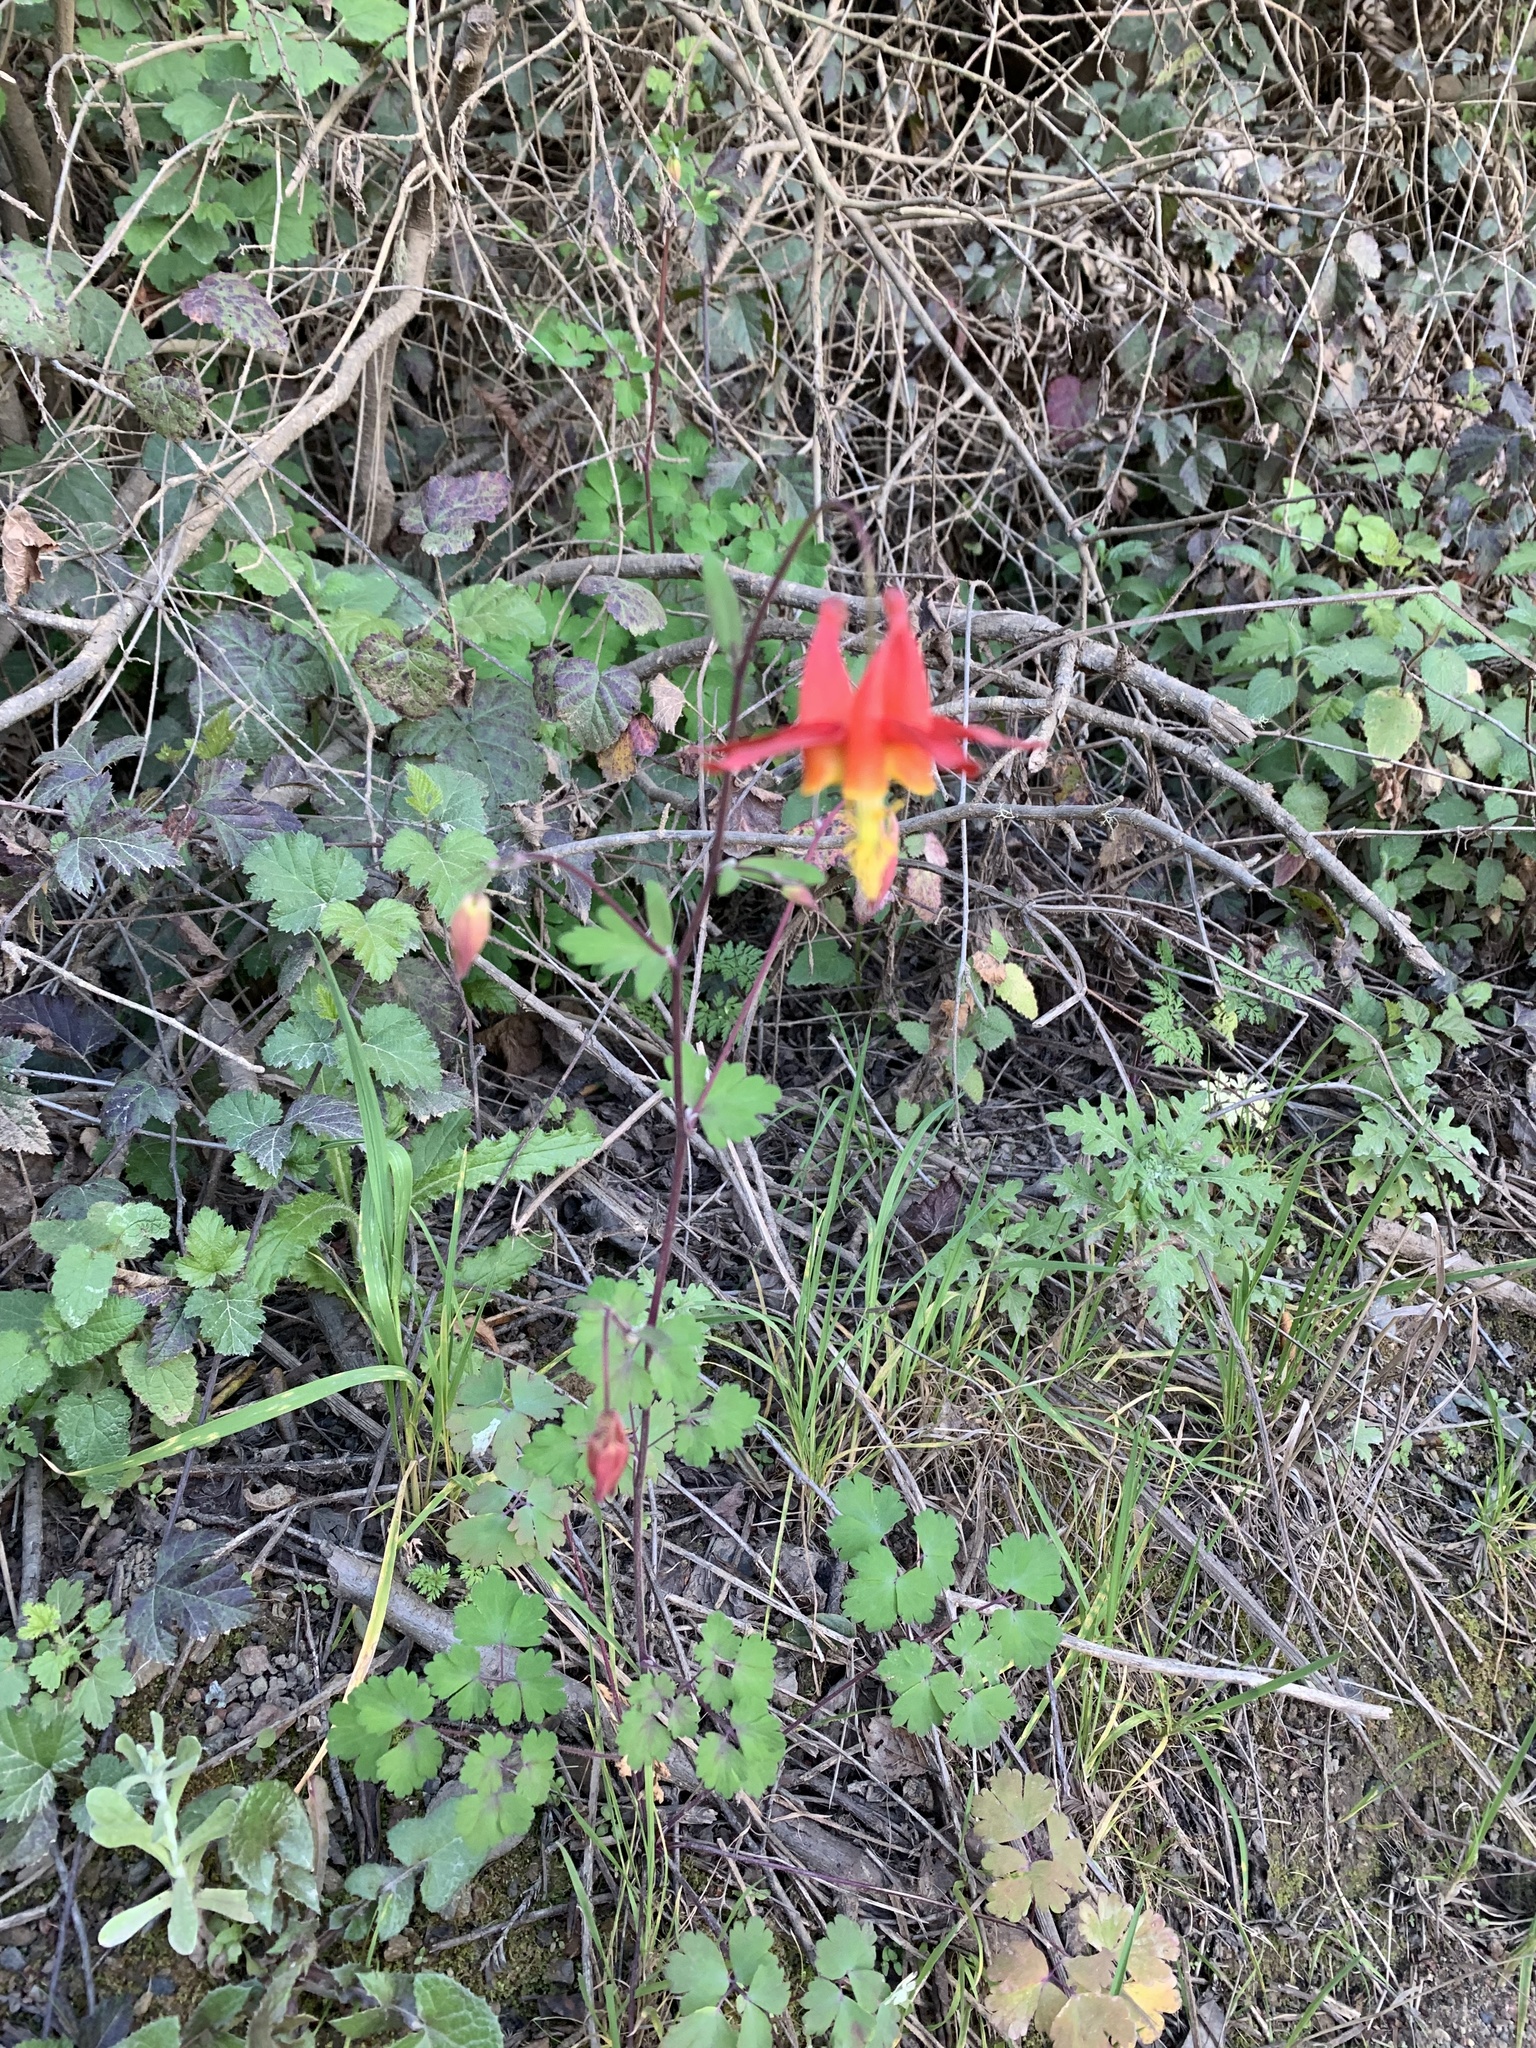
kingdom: Plantae
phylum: Tracheophyta
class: Magnoliopsida
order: Ranunculales
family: Ranunculaceae
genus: Aquilegia
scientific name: Aquilegia formosa
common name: Sitka columbine
